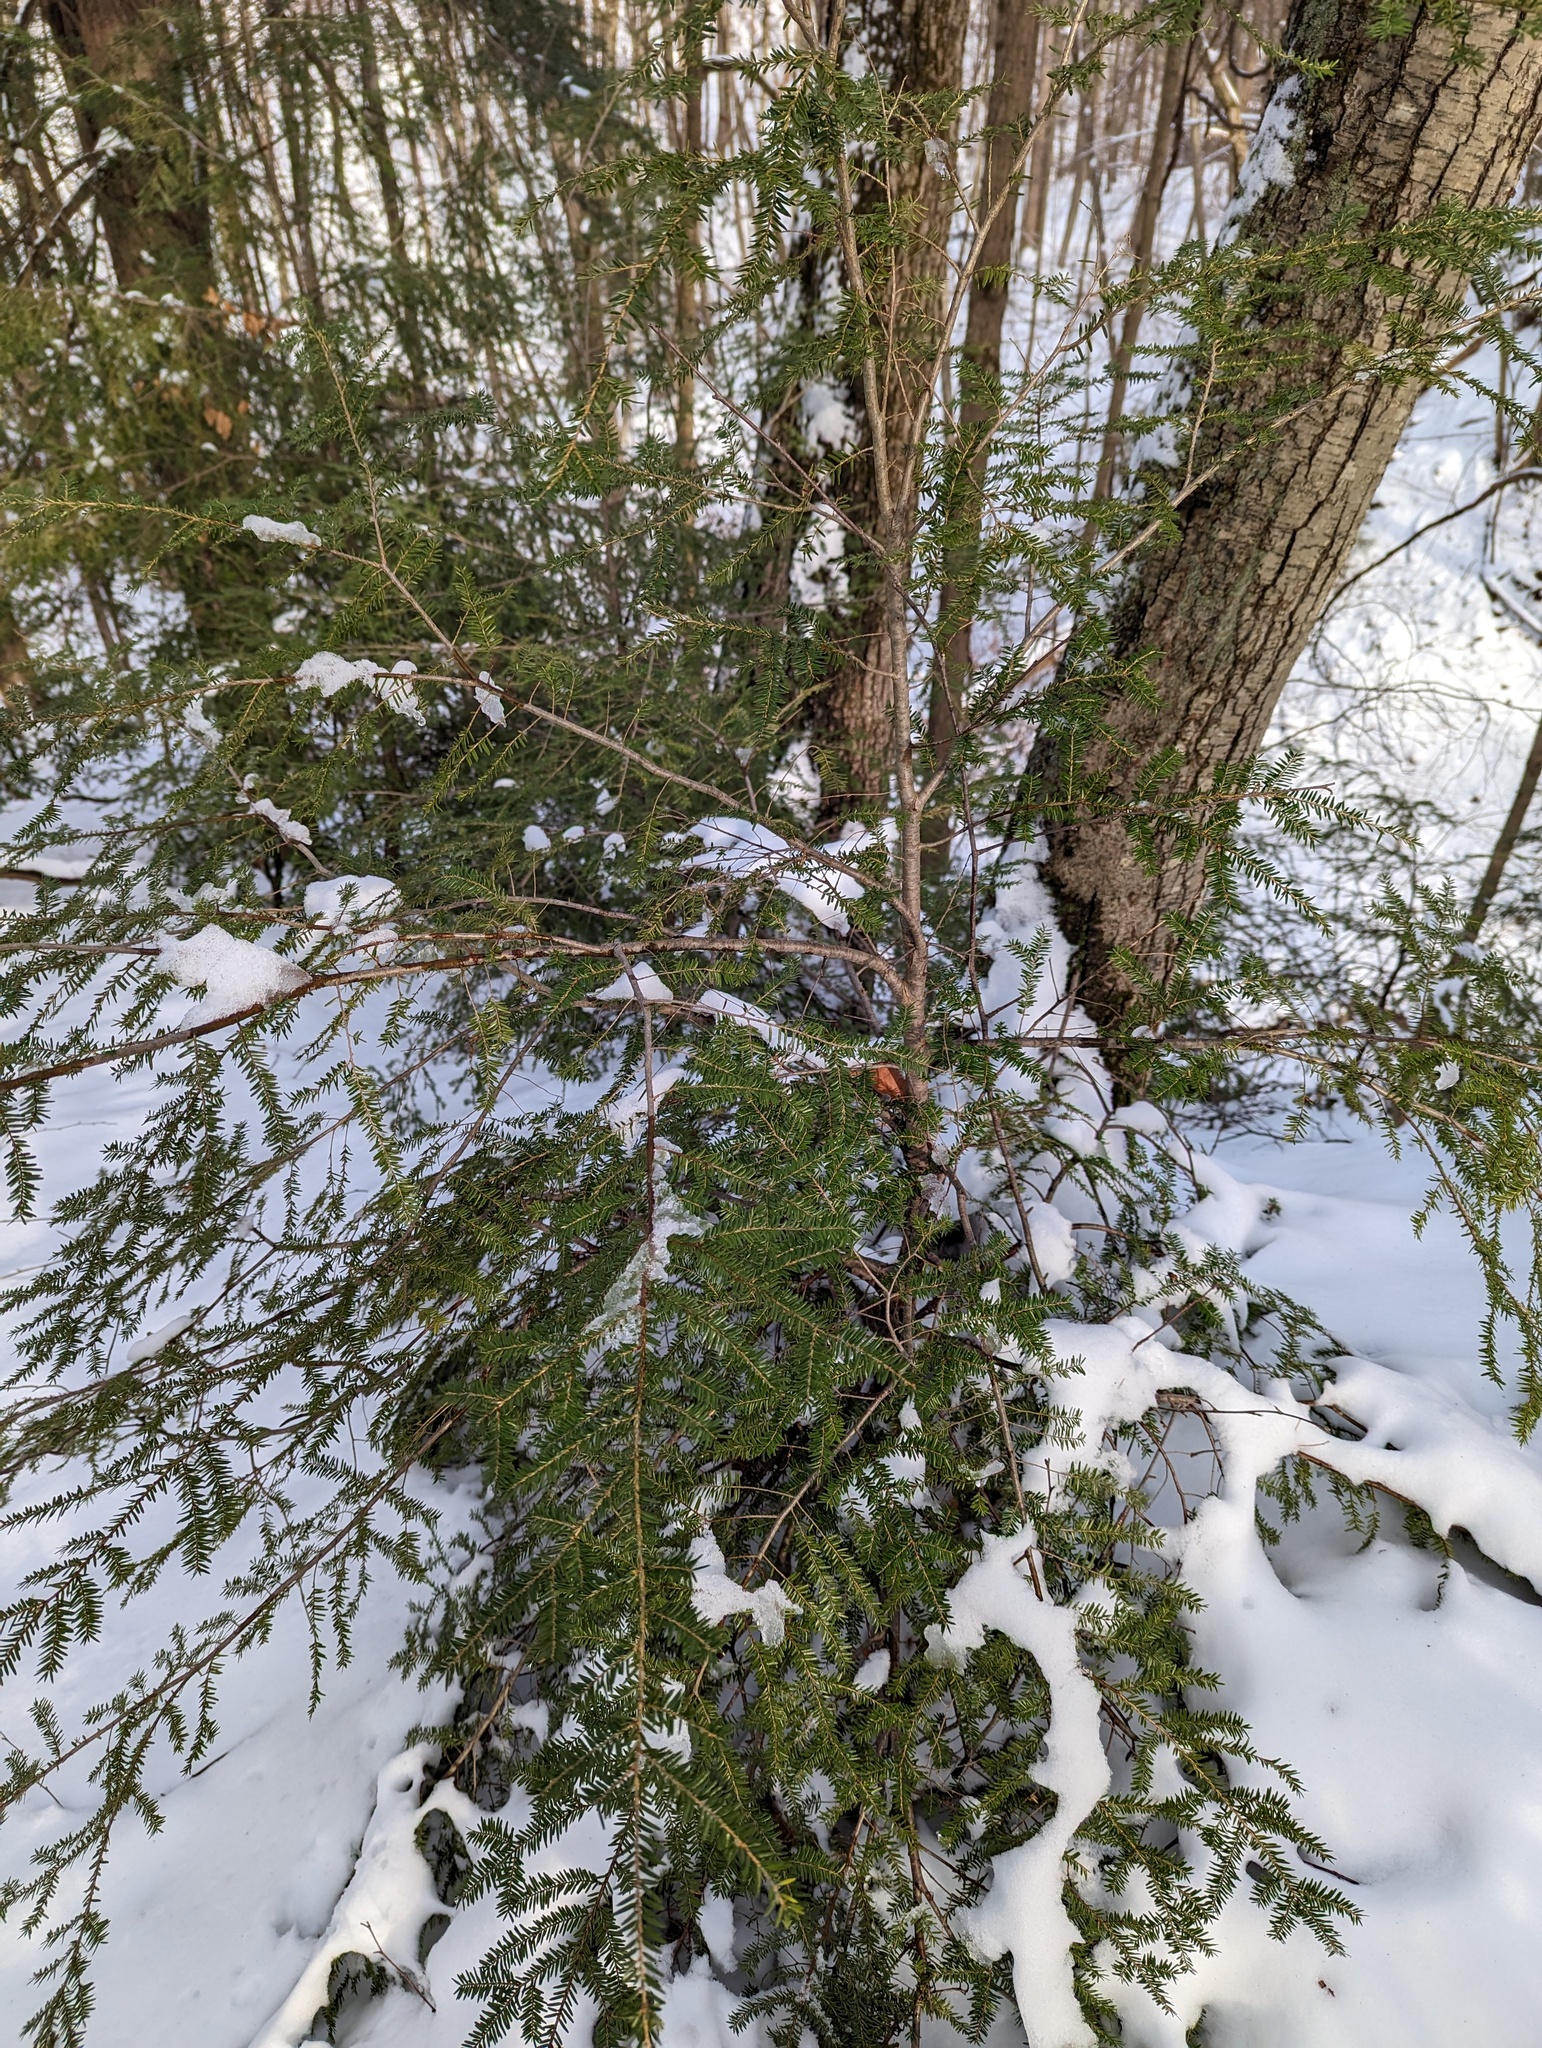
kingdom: Plantae
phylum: Tracheophyta
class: Pinopsida
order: Pinales
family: Pinaceae
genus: Tsuga
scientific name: Tsuga canadensis
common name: Eastern hemlock
